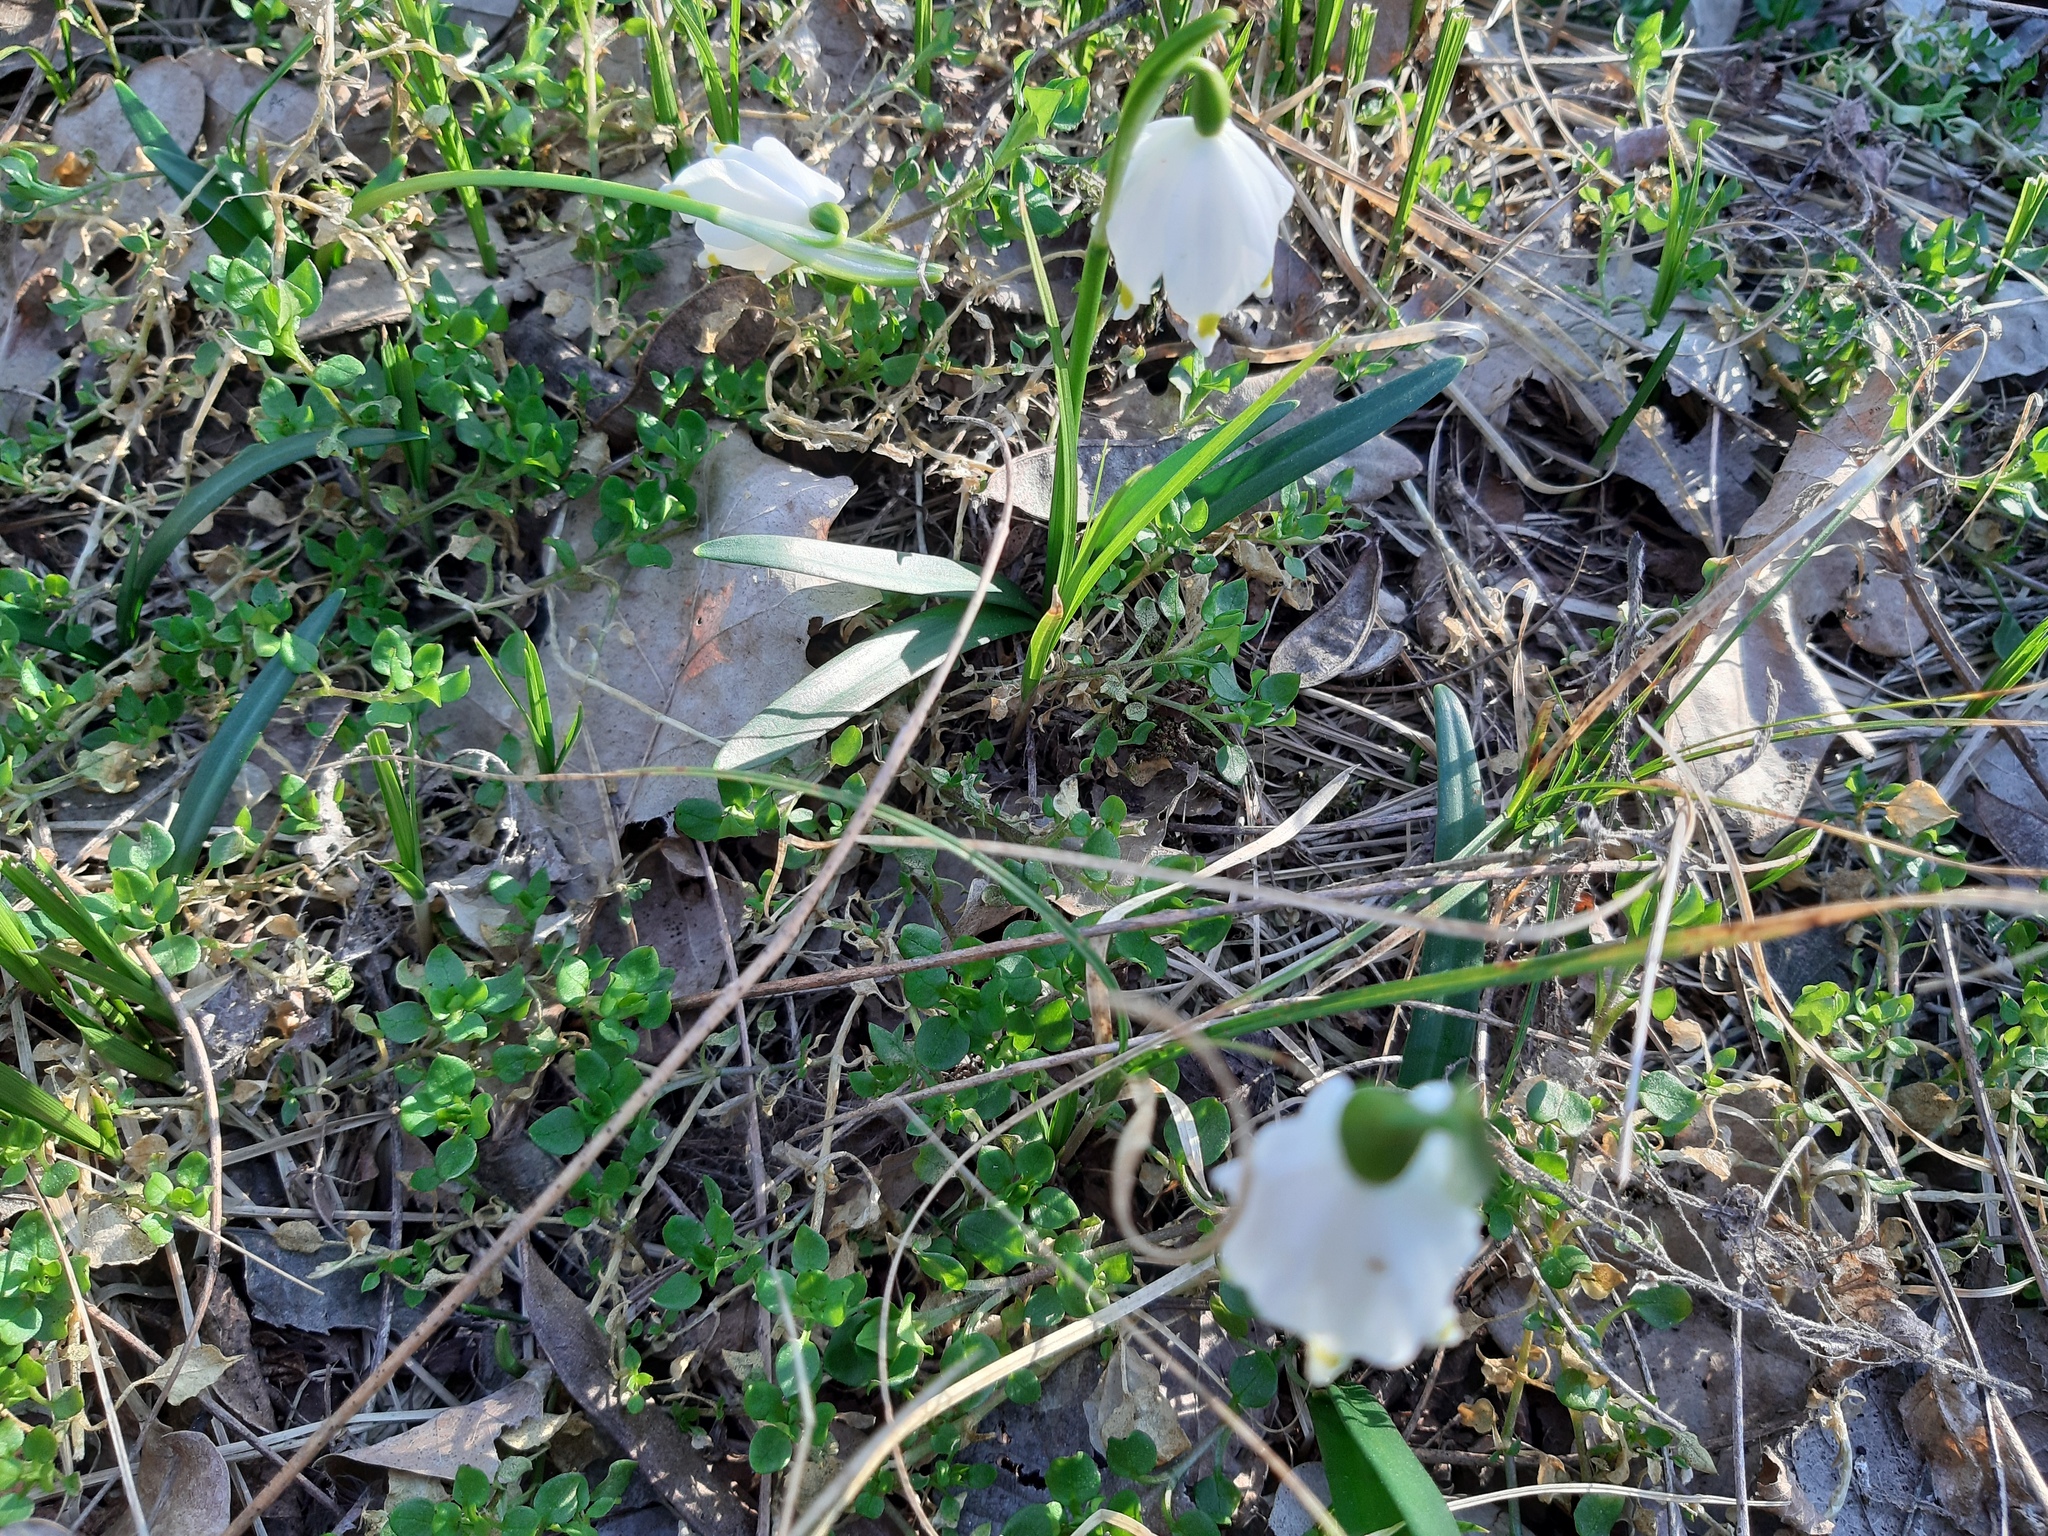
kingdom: Plantae
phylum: Tracheophyta
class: Liliopsida
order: Asparagales
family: Amaryllidaceae
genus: Leucojum
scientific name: Leucojum vernum
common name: Spring snowflake
